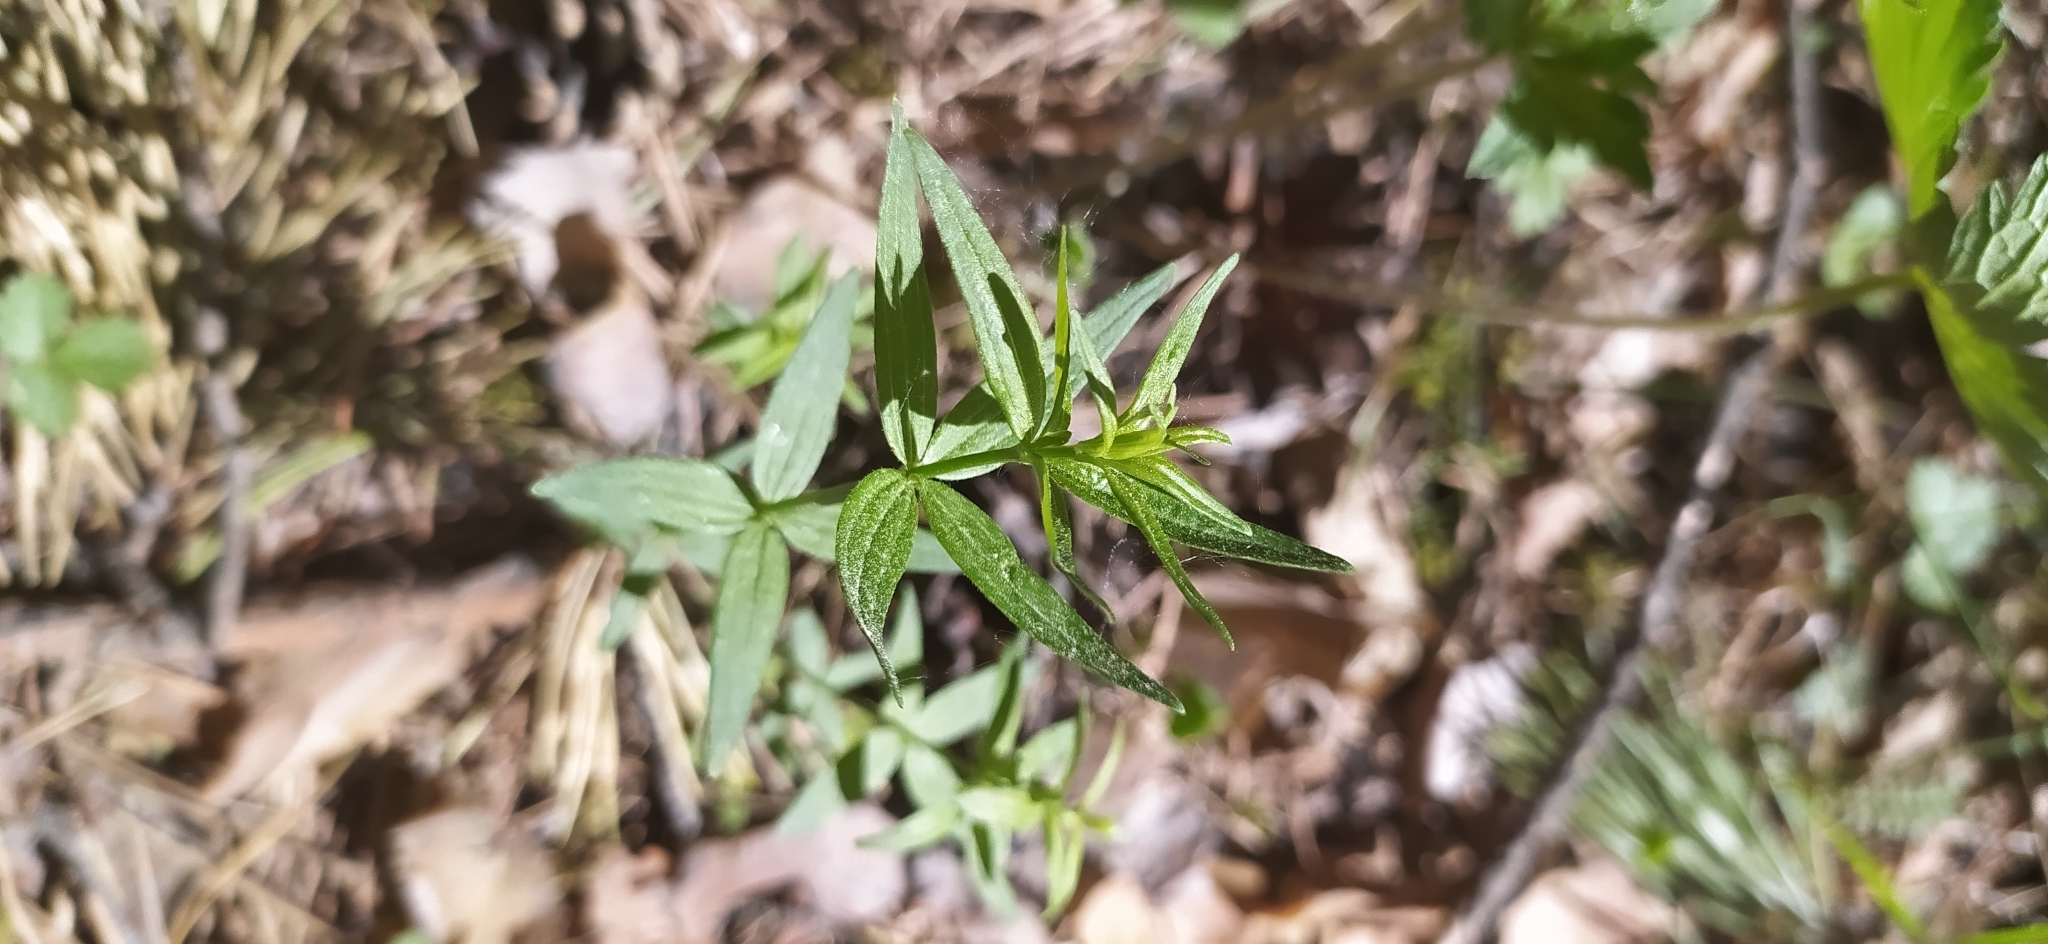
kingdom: Plantae
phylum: Tracheophyta
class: Magnoliopsida
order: Gentianales
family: Rubiaceae
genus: Galium
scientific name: Galium boreale
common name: Northern bedstraw
